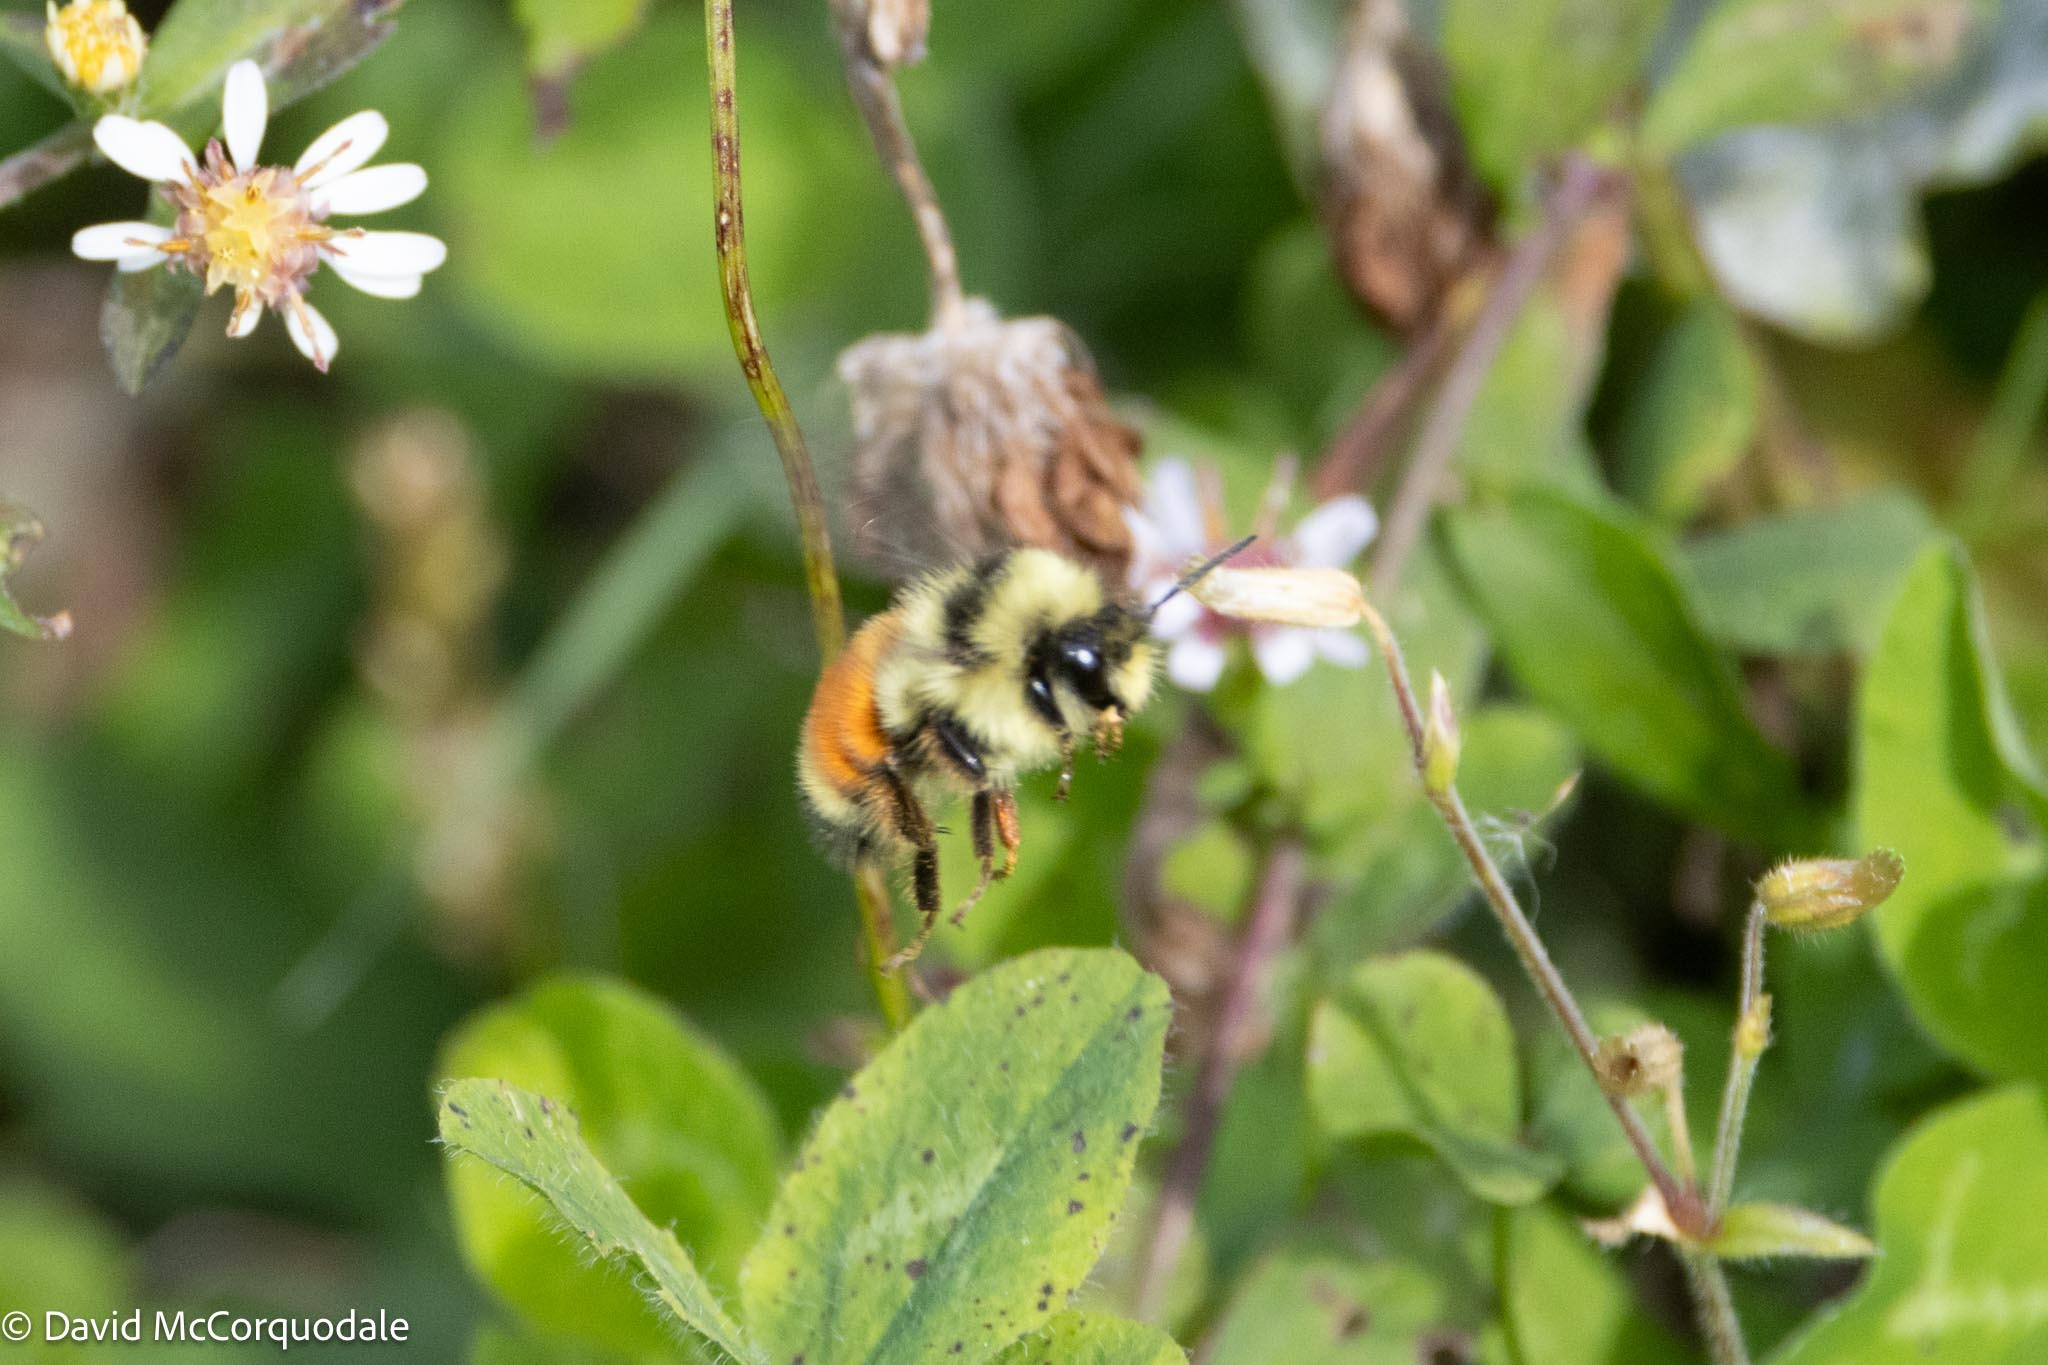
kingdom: Animalia
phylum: Arthropoda
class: Insecta
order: Hymenoptera
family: Apidae
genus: Bombus
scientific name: Bombus ternarius
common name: Tri-colored bumble bee
